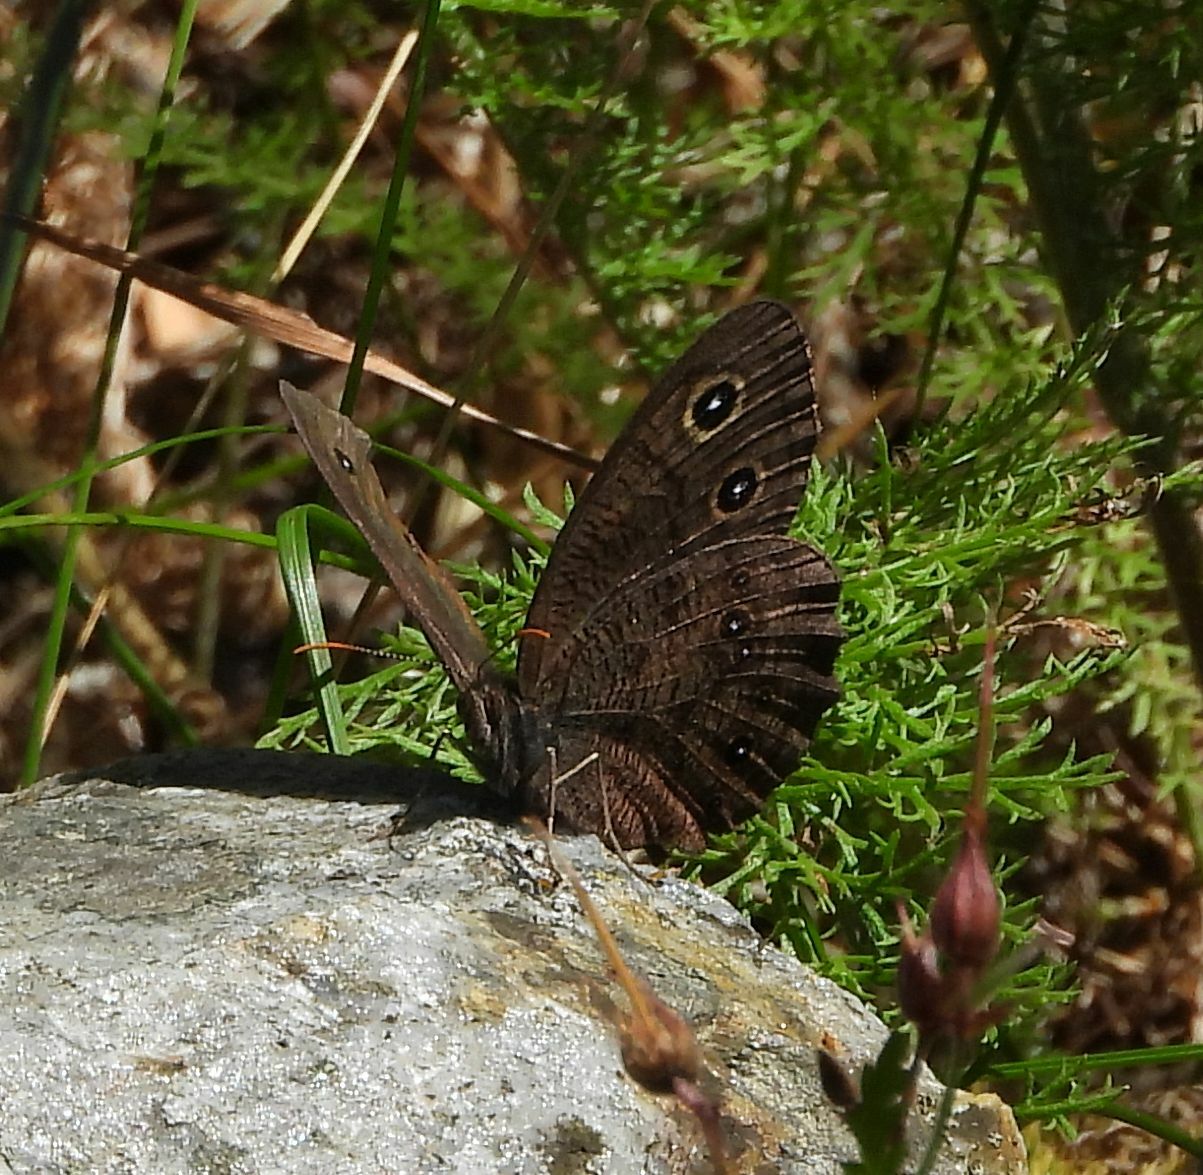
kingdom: Animalia
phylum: Arthropoda
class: Insecta
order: Lepidoptera
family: Nymphalidae
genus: Cercyonis
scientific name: Cercyonis pegala
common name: Common wood-nymph
